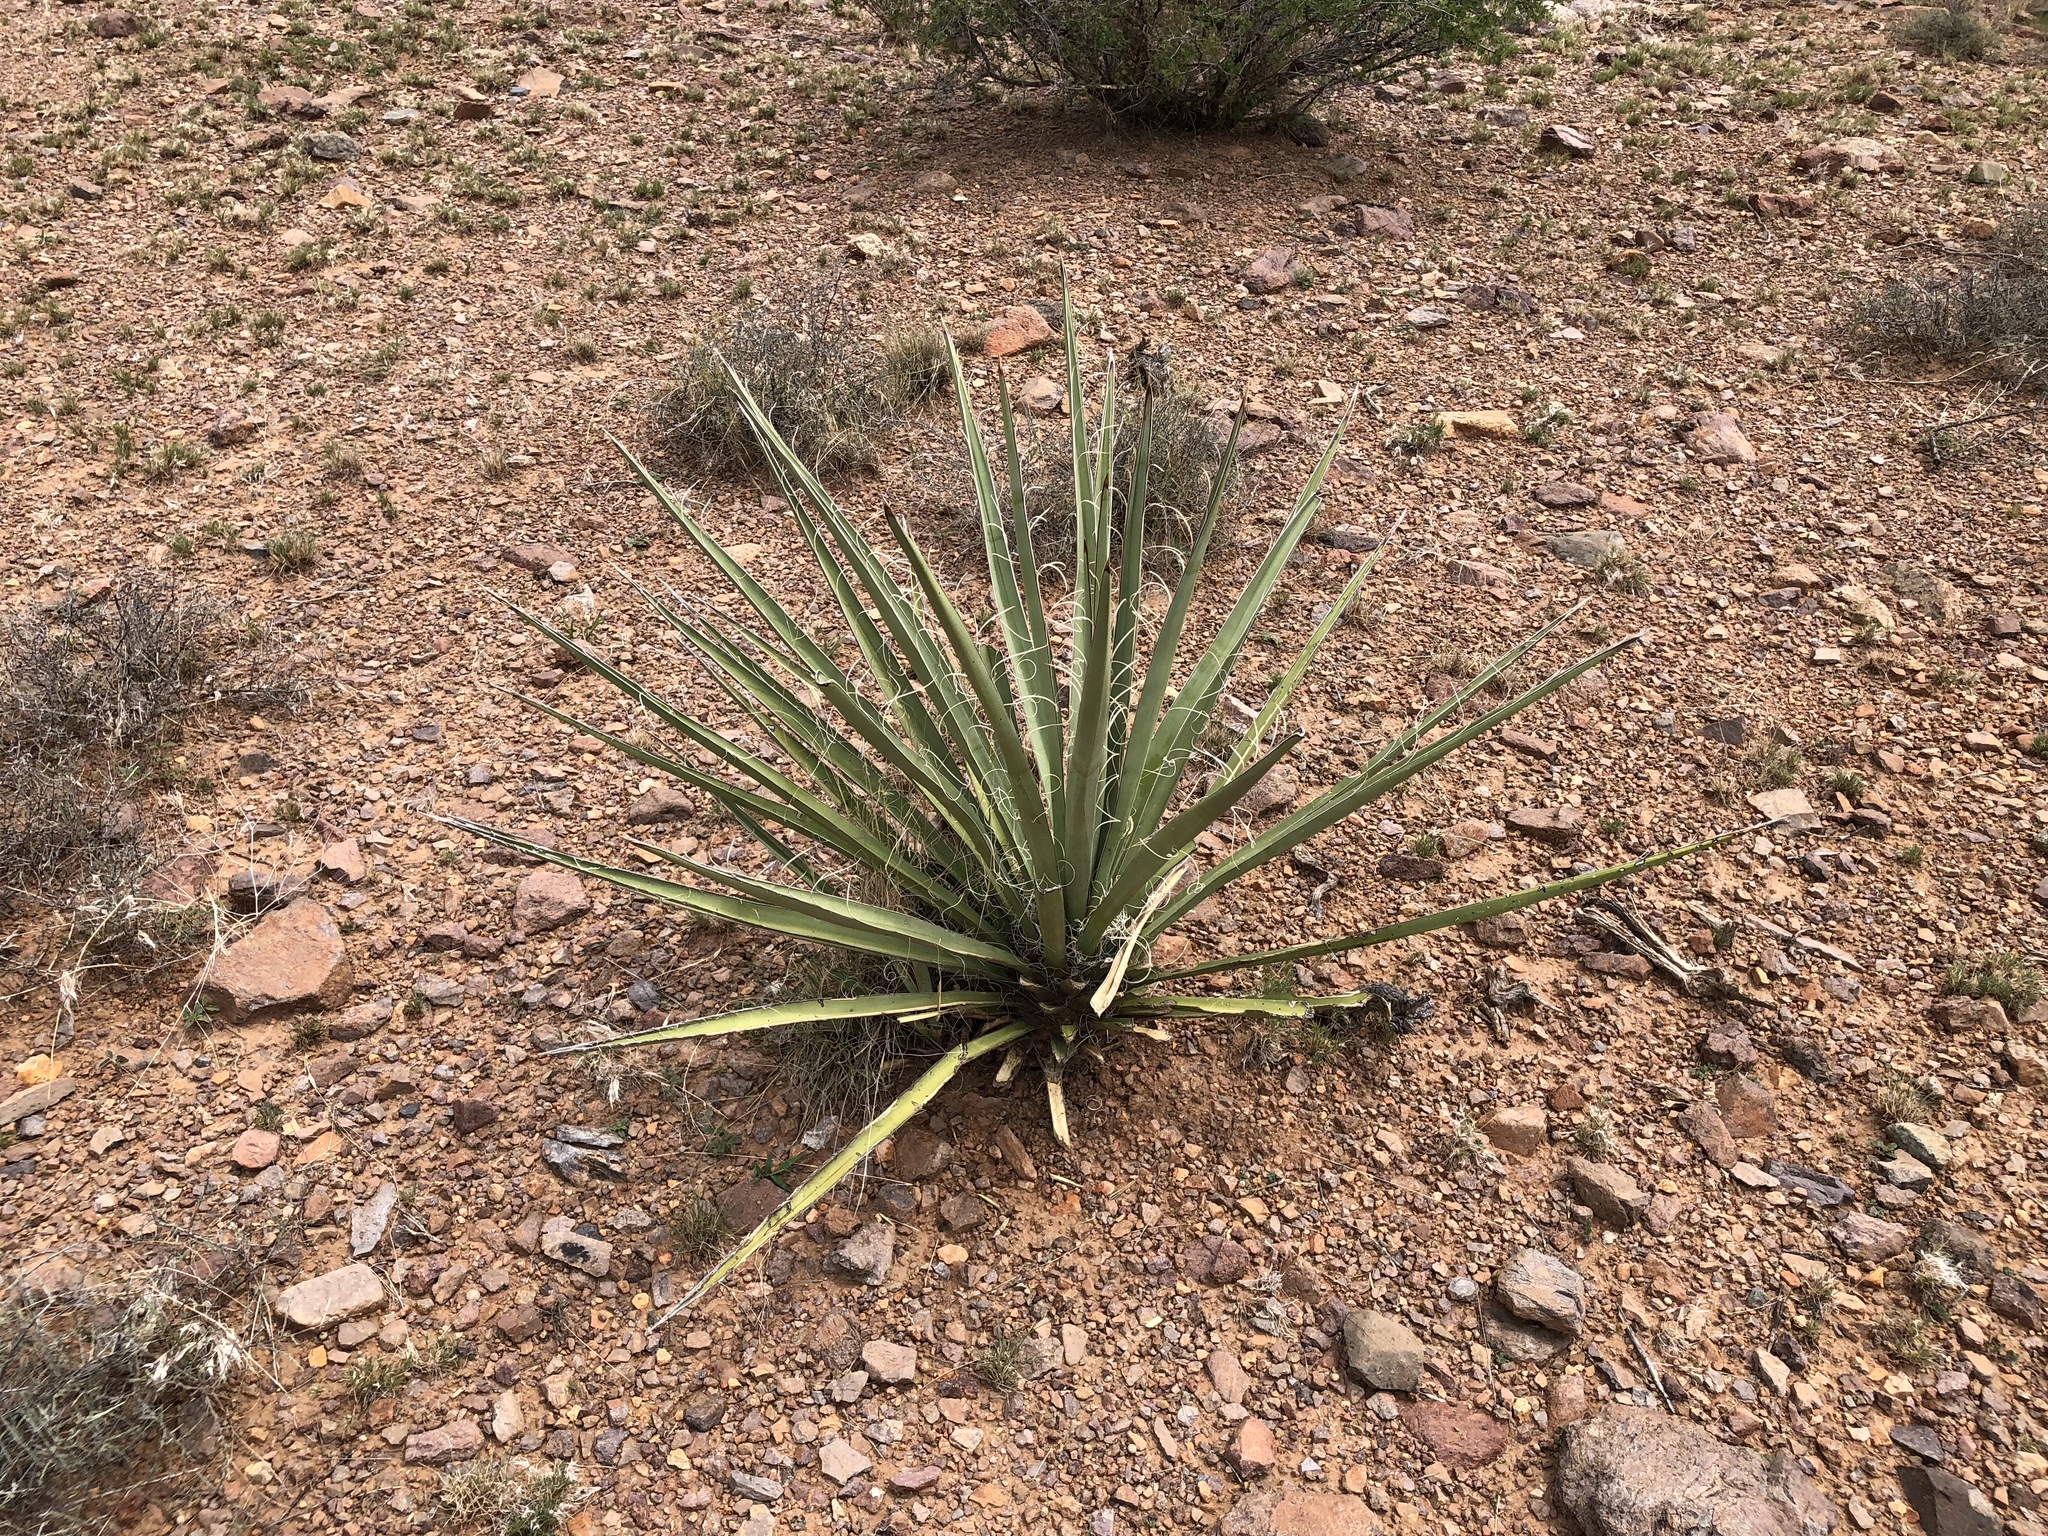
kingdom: Plantae
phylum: Tracheophyta
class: Liliopsida
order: Asparagales
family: Asparagaceae
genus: Yucca
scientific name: Yucca baccata
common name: Banana yucca
